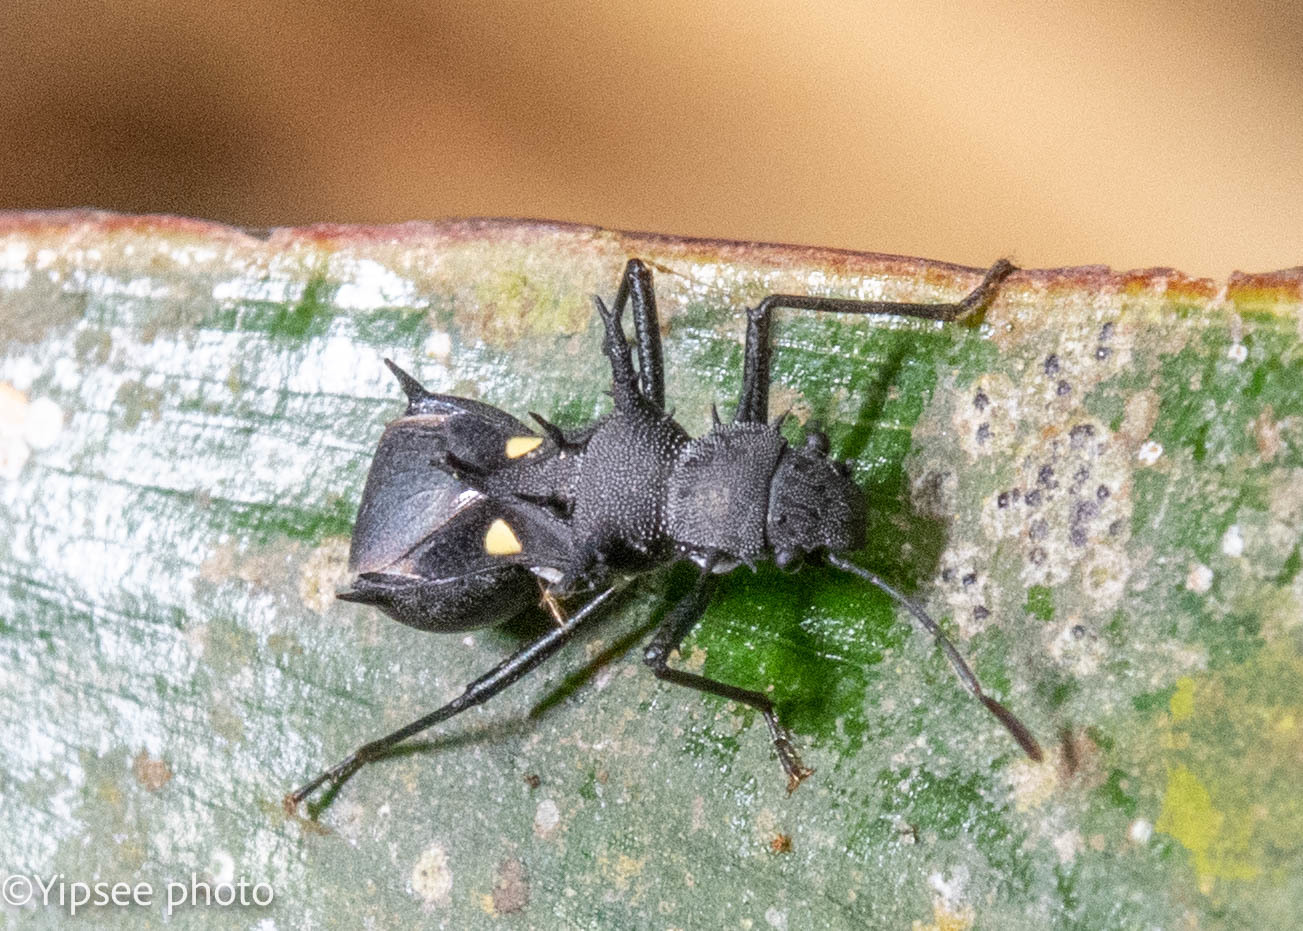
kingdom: Animalia
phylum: Arthropoda
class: Insecta
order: Hemiptera
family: Pentatomidae
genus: Pentamyrmex
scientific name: Pentamyrmex spinosus
